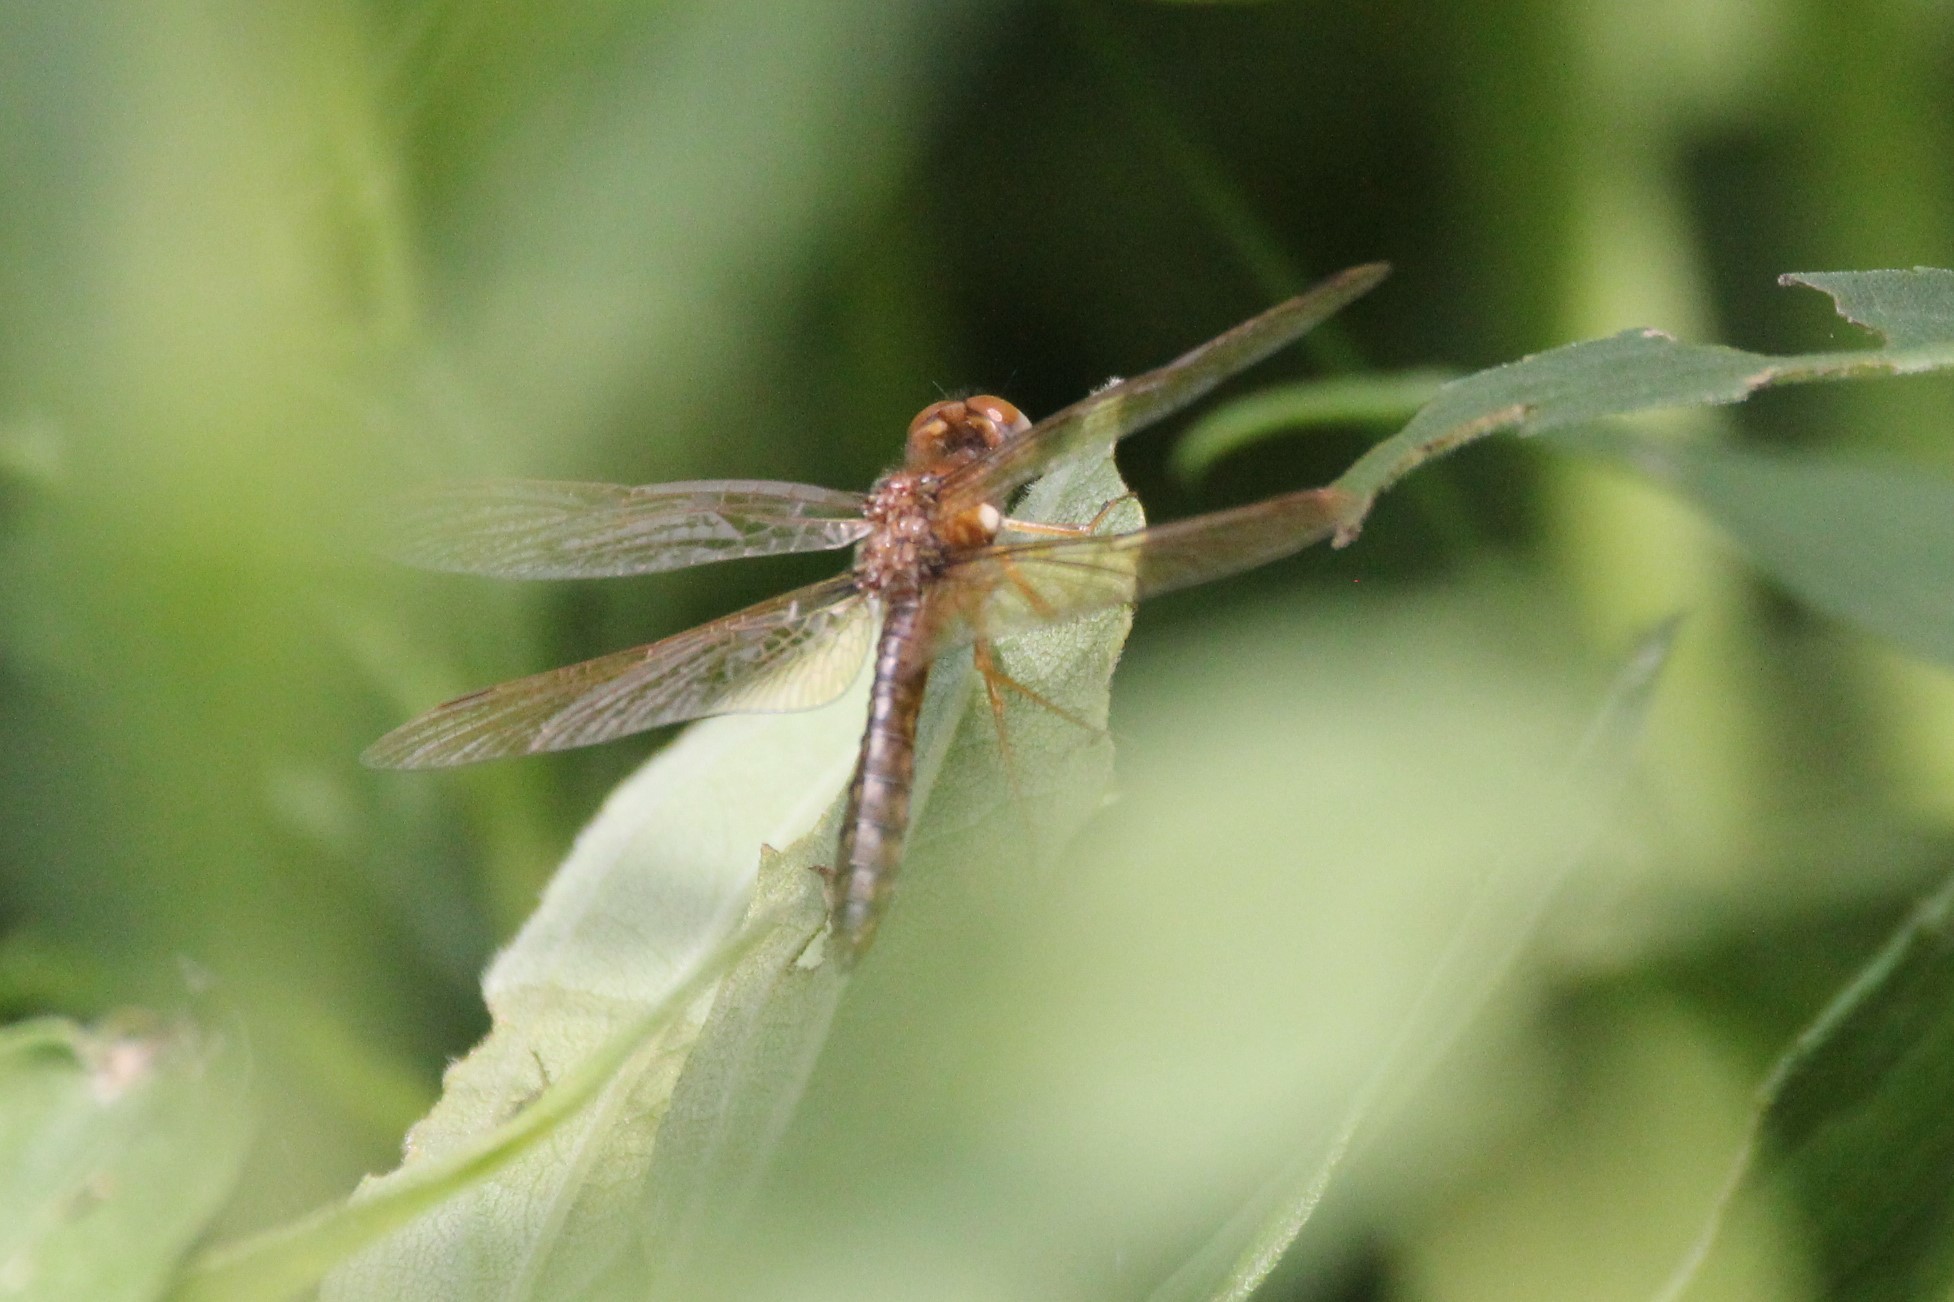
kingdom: Animalia
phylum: Arthropoda
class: Insecta
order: Odonata
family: Libellulidae
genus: Perithemis
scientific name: Perithemis tenera
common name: Eastern amberwing
